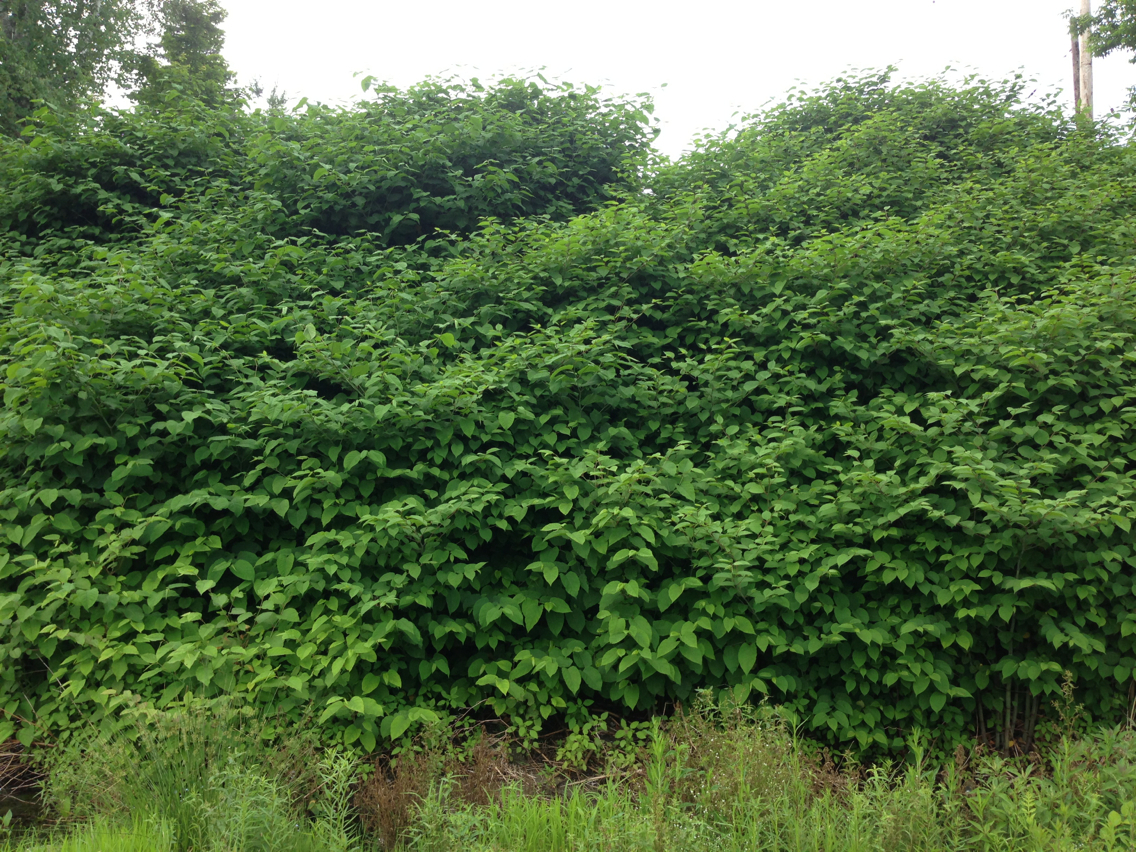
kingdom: Plantae
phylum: Tracheophyta
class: Magnoliopsida
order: Caryophyllales
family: Polygonaceae
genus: Reynoutria
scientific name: Reynoutria japonica
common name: Japanese knotweed
